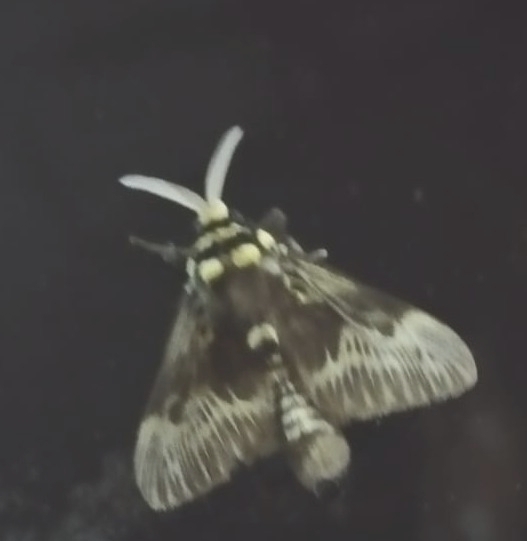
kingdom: Animalia
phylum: Arthropoda
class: Insecta
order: Lepidoptera
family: Megalopygidae
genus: Megalopyge
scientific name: Megalopyge albicollis
